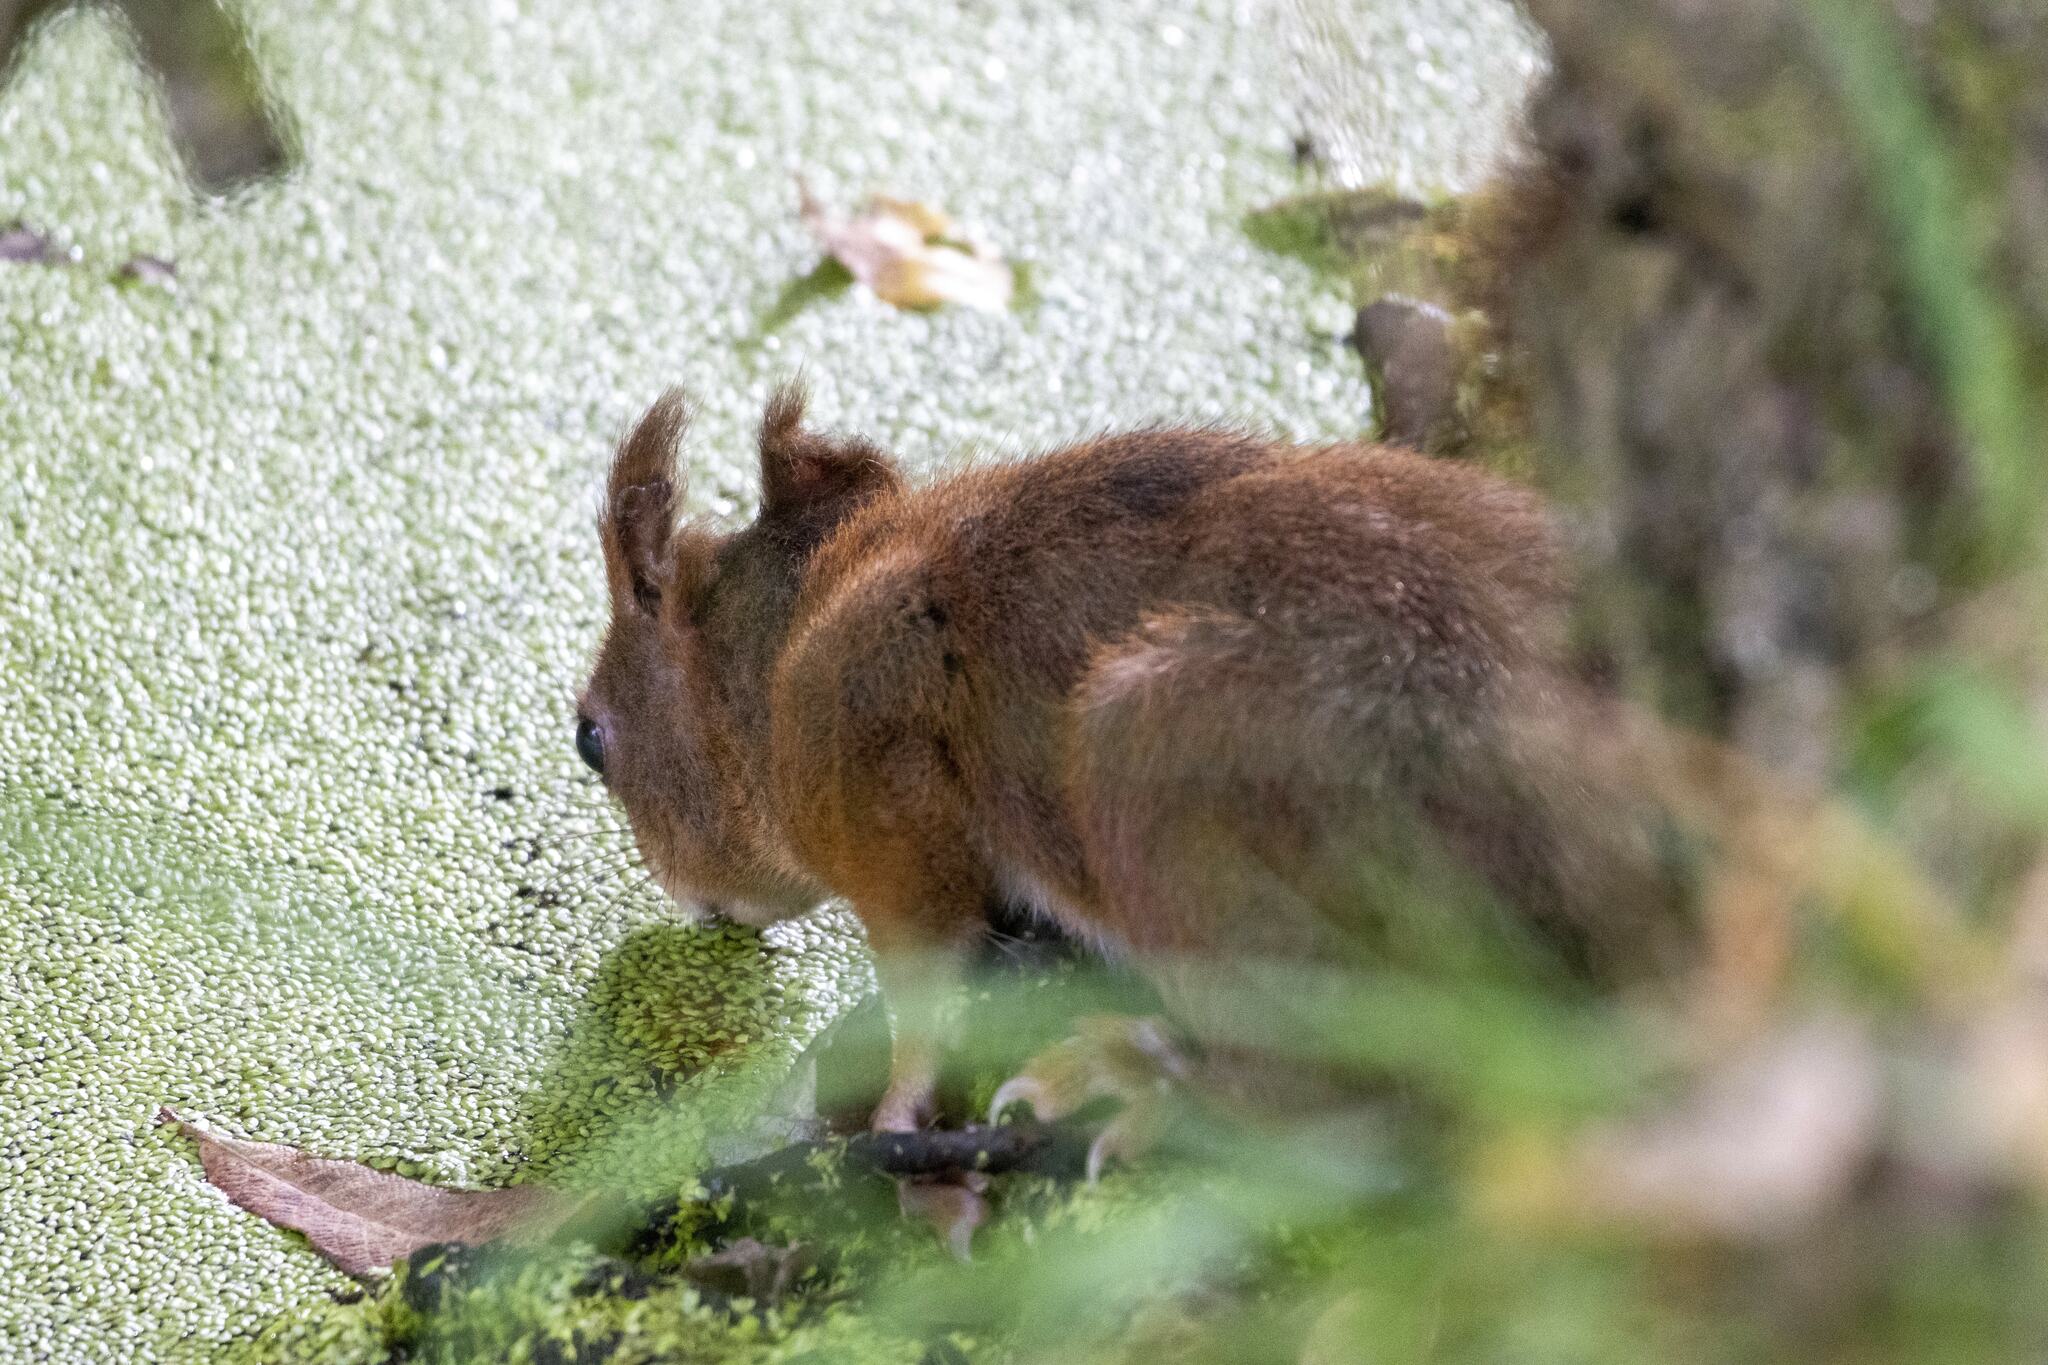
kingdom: Animalia
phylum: Chordata
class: Mammalia
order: Rodentia
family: Sciuridae
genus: Sciurus
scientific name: Sciurus vulgaris
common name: Eurasian red squirrel
